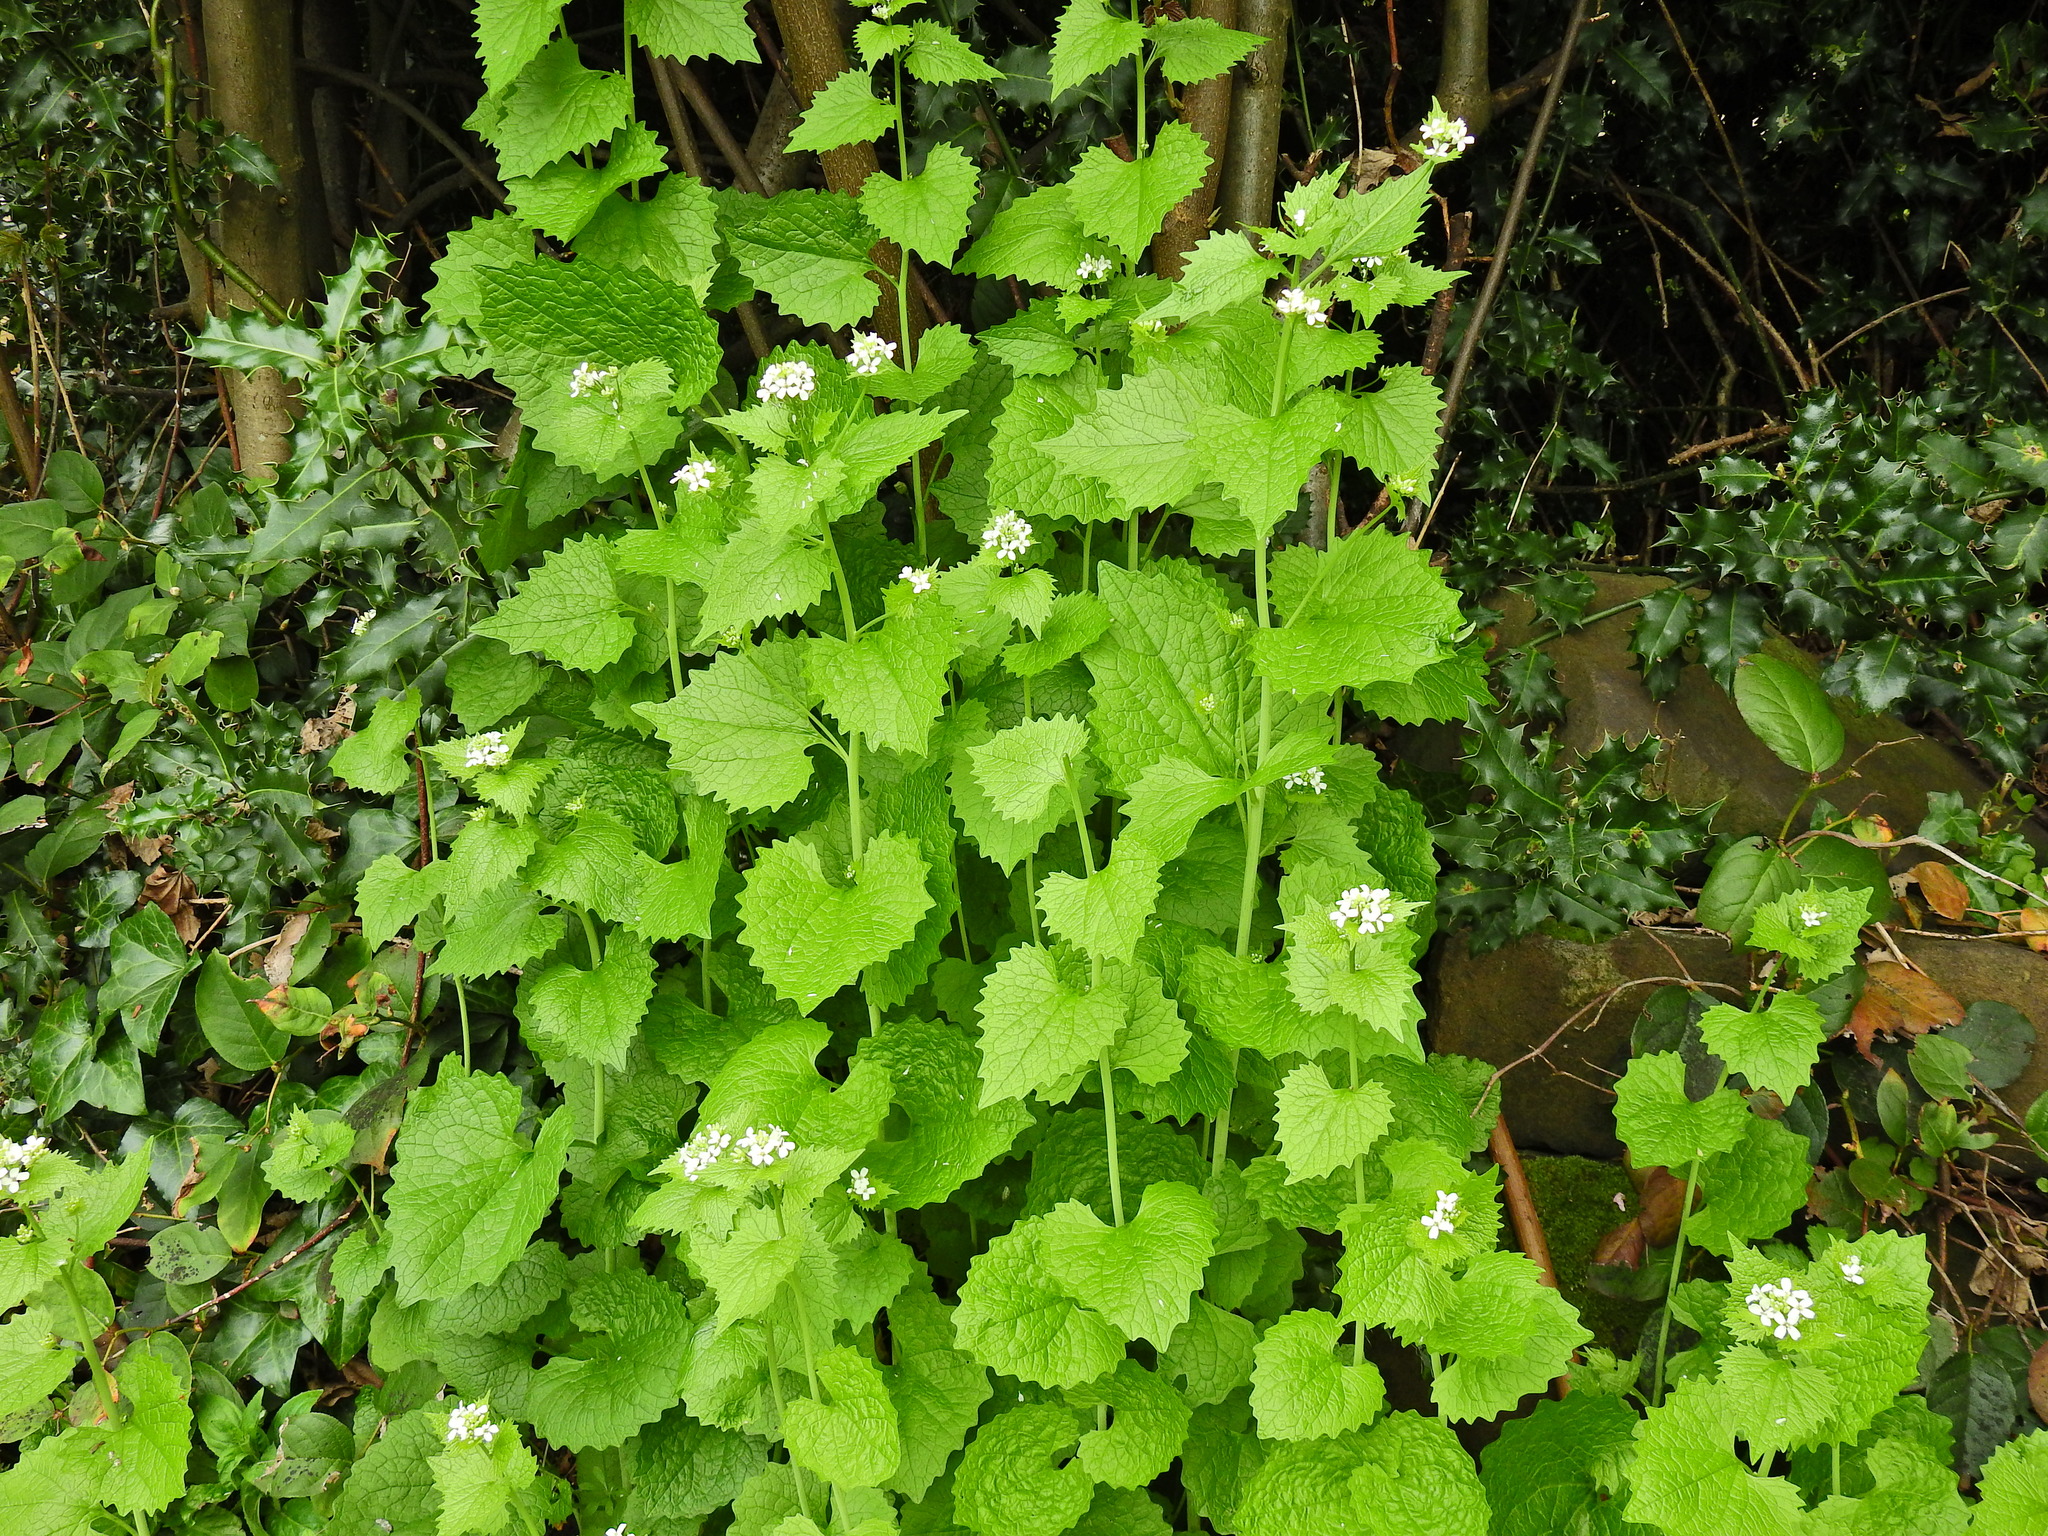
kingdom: Plantae
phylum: Tracheophyta
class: Magnoliopsida
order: Brassicales
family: Brassicaceae
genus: Alliaria
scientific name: Alliaria petiolata
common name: Garlic mustard
